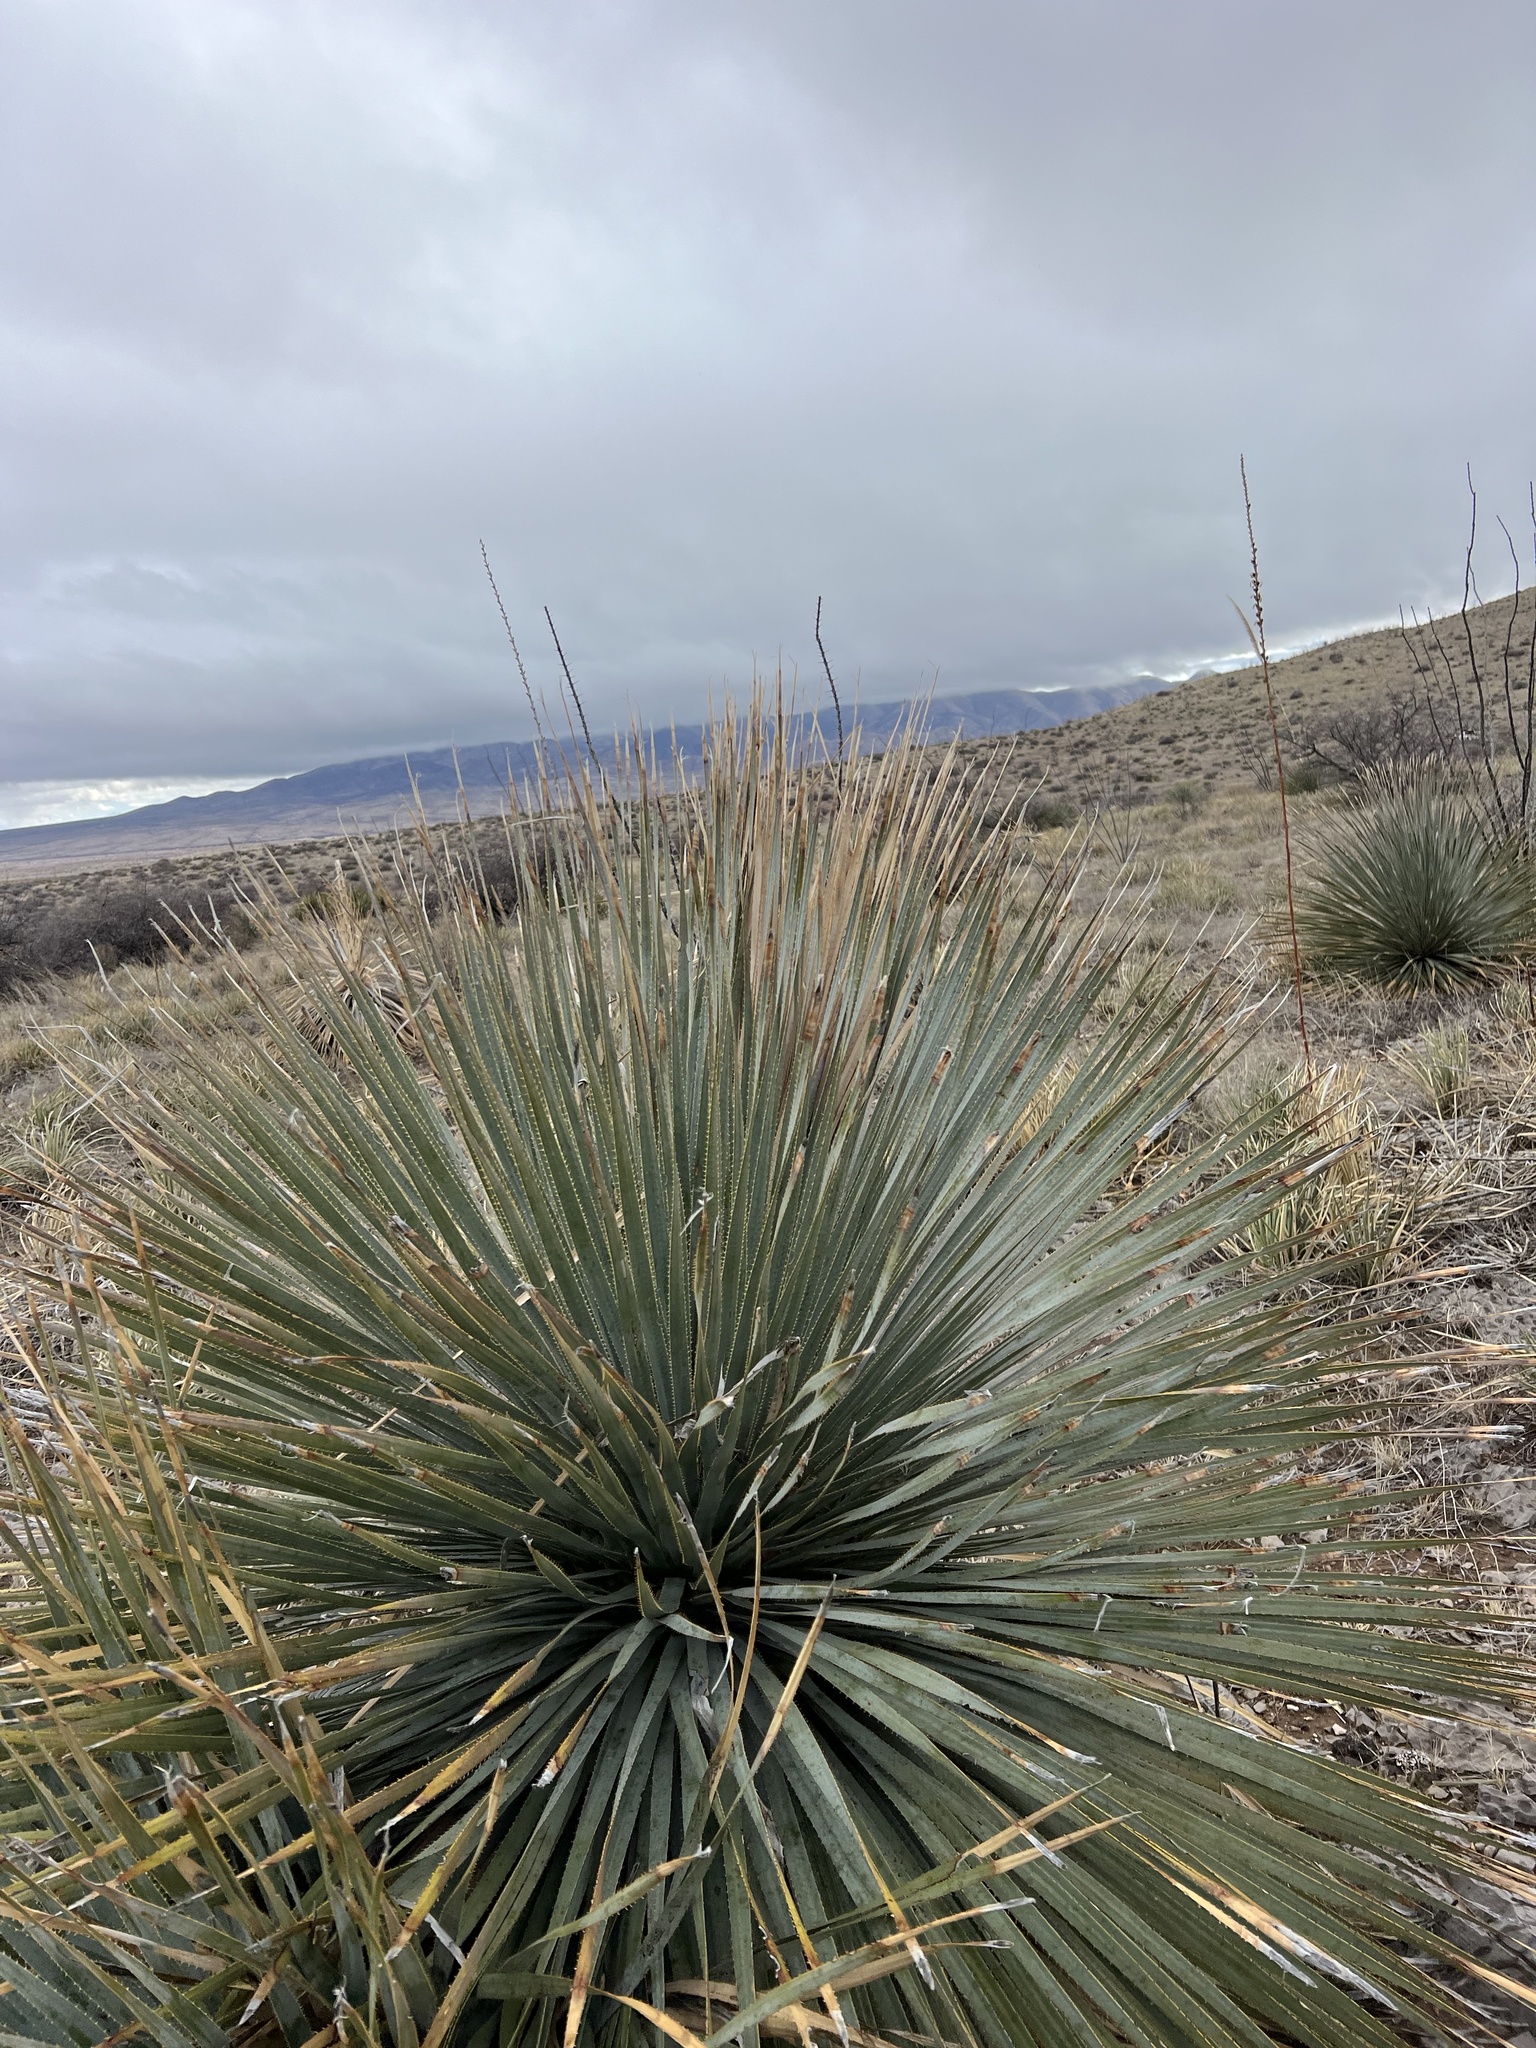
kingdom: Plantae
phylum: Tracheophyta
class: Liliopsida
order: Asparagales
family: Asparagaceae
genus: Dasylirion
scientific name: Dasylirion wheeleri
